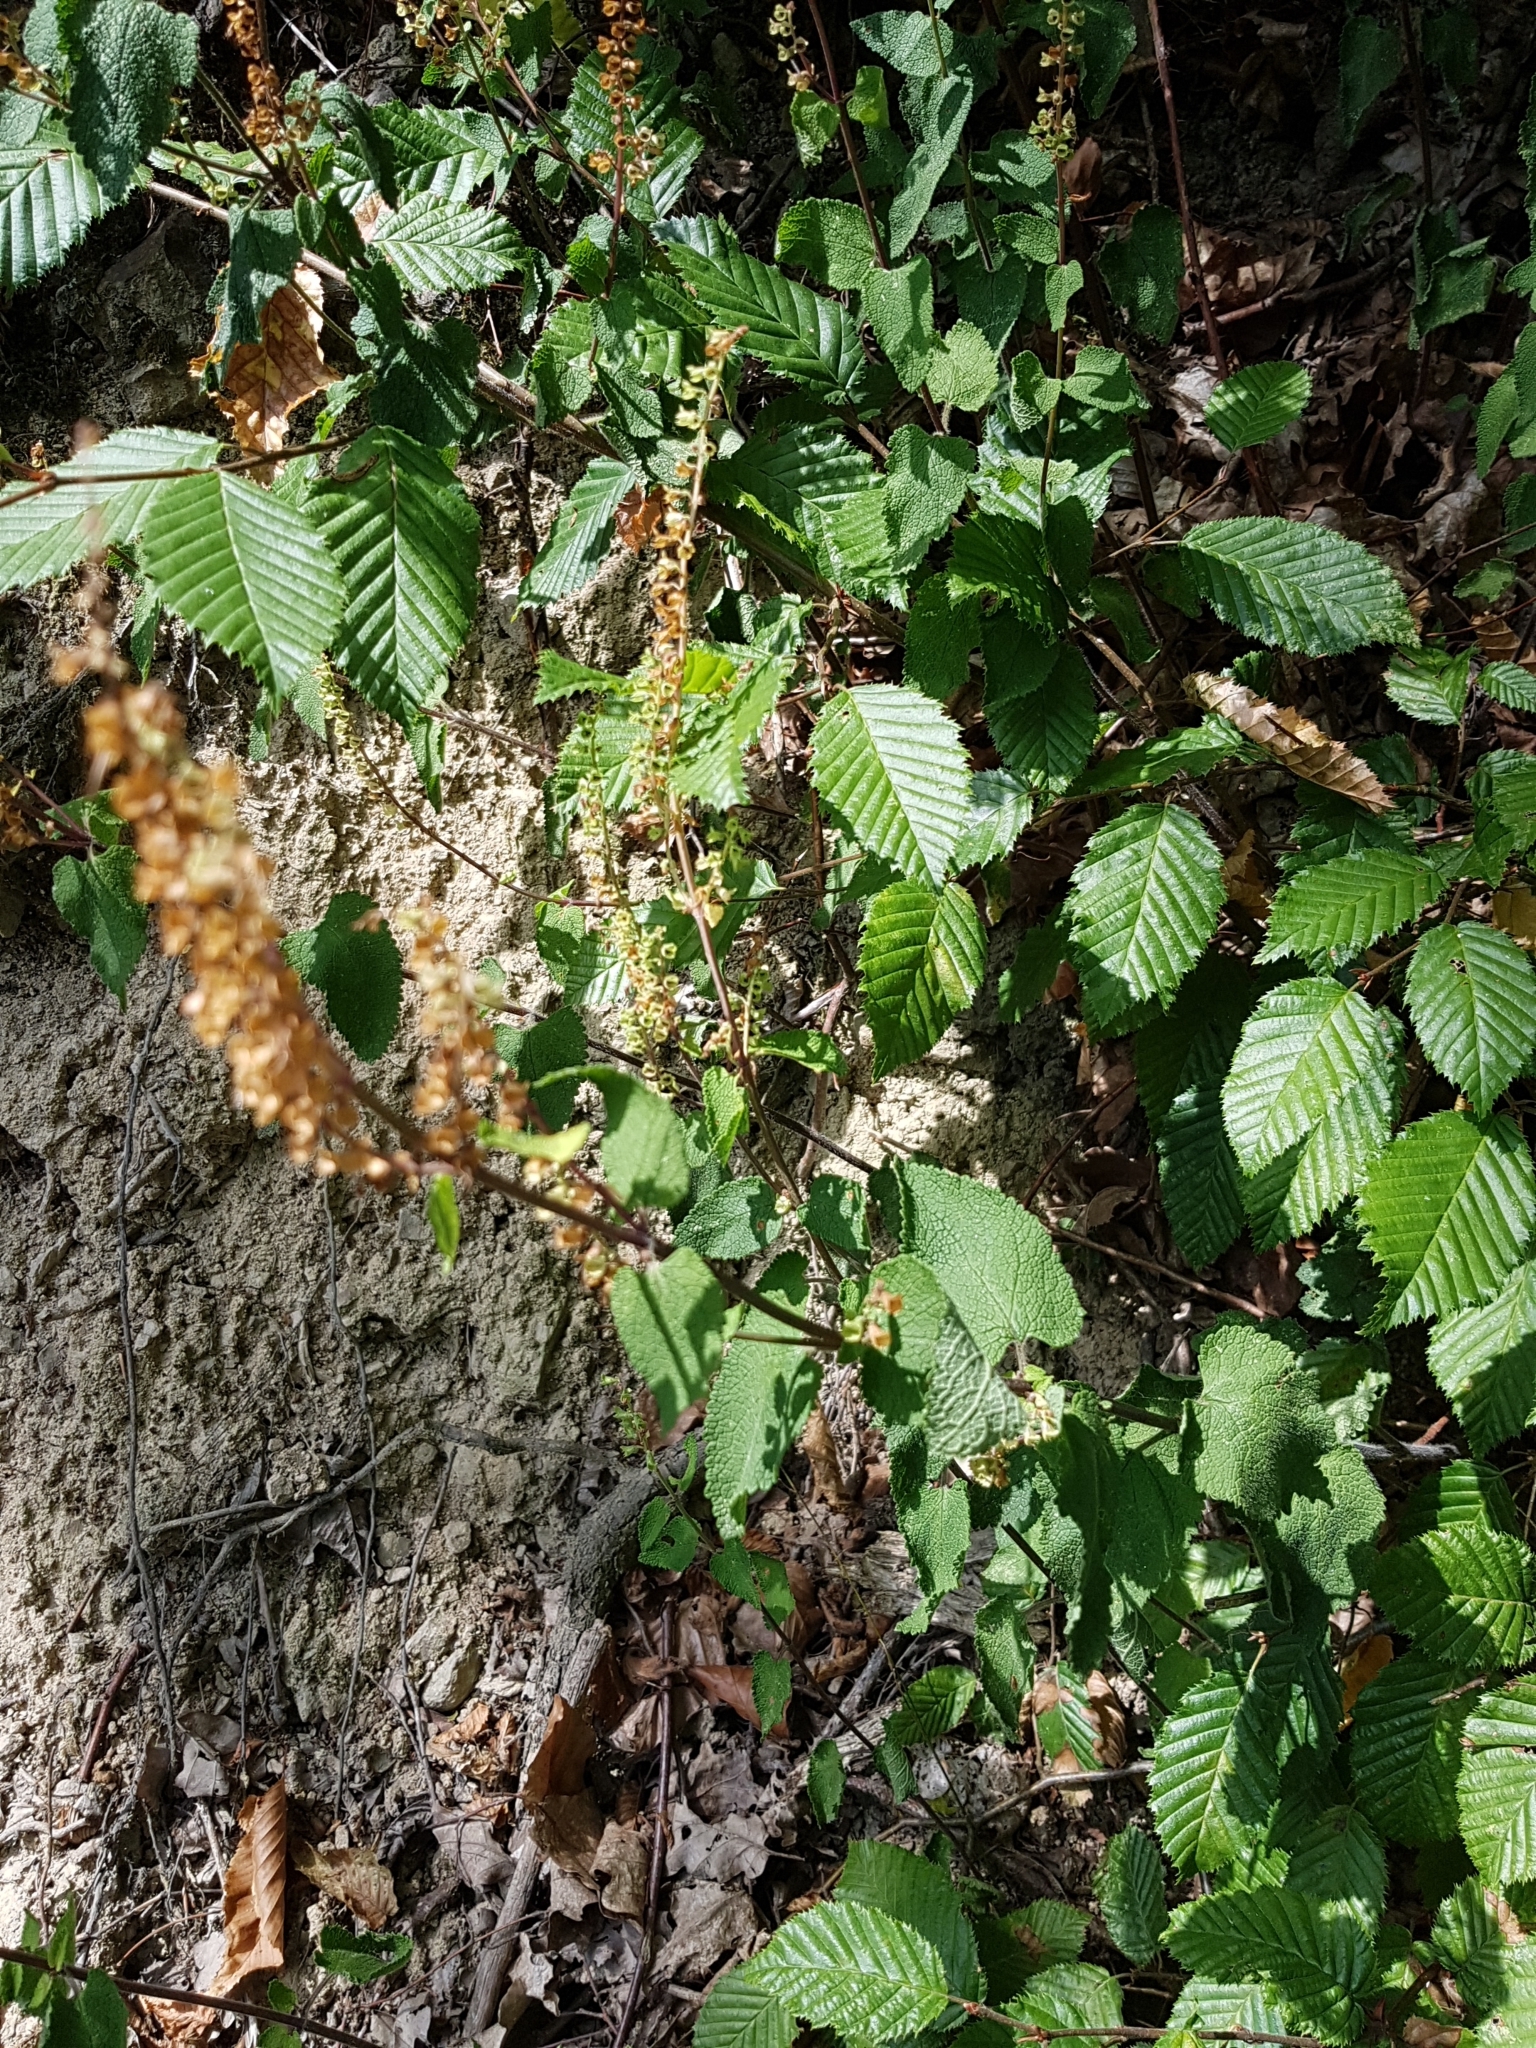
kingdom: Plantae
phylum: Tracheophyta
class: Magnoliopsida
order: Lamiales
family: Lamiaceae
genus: Teucrium
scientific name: Teucrium scorodonia
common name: Woodland germander
